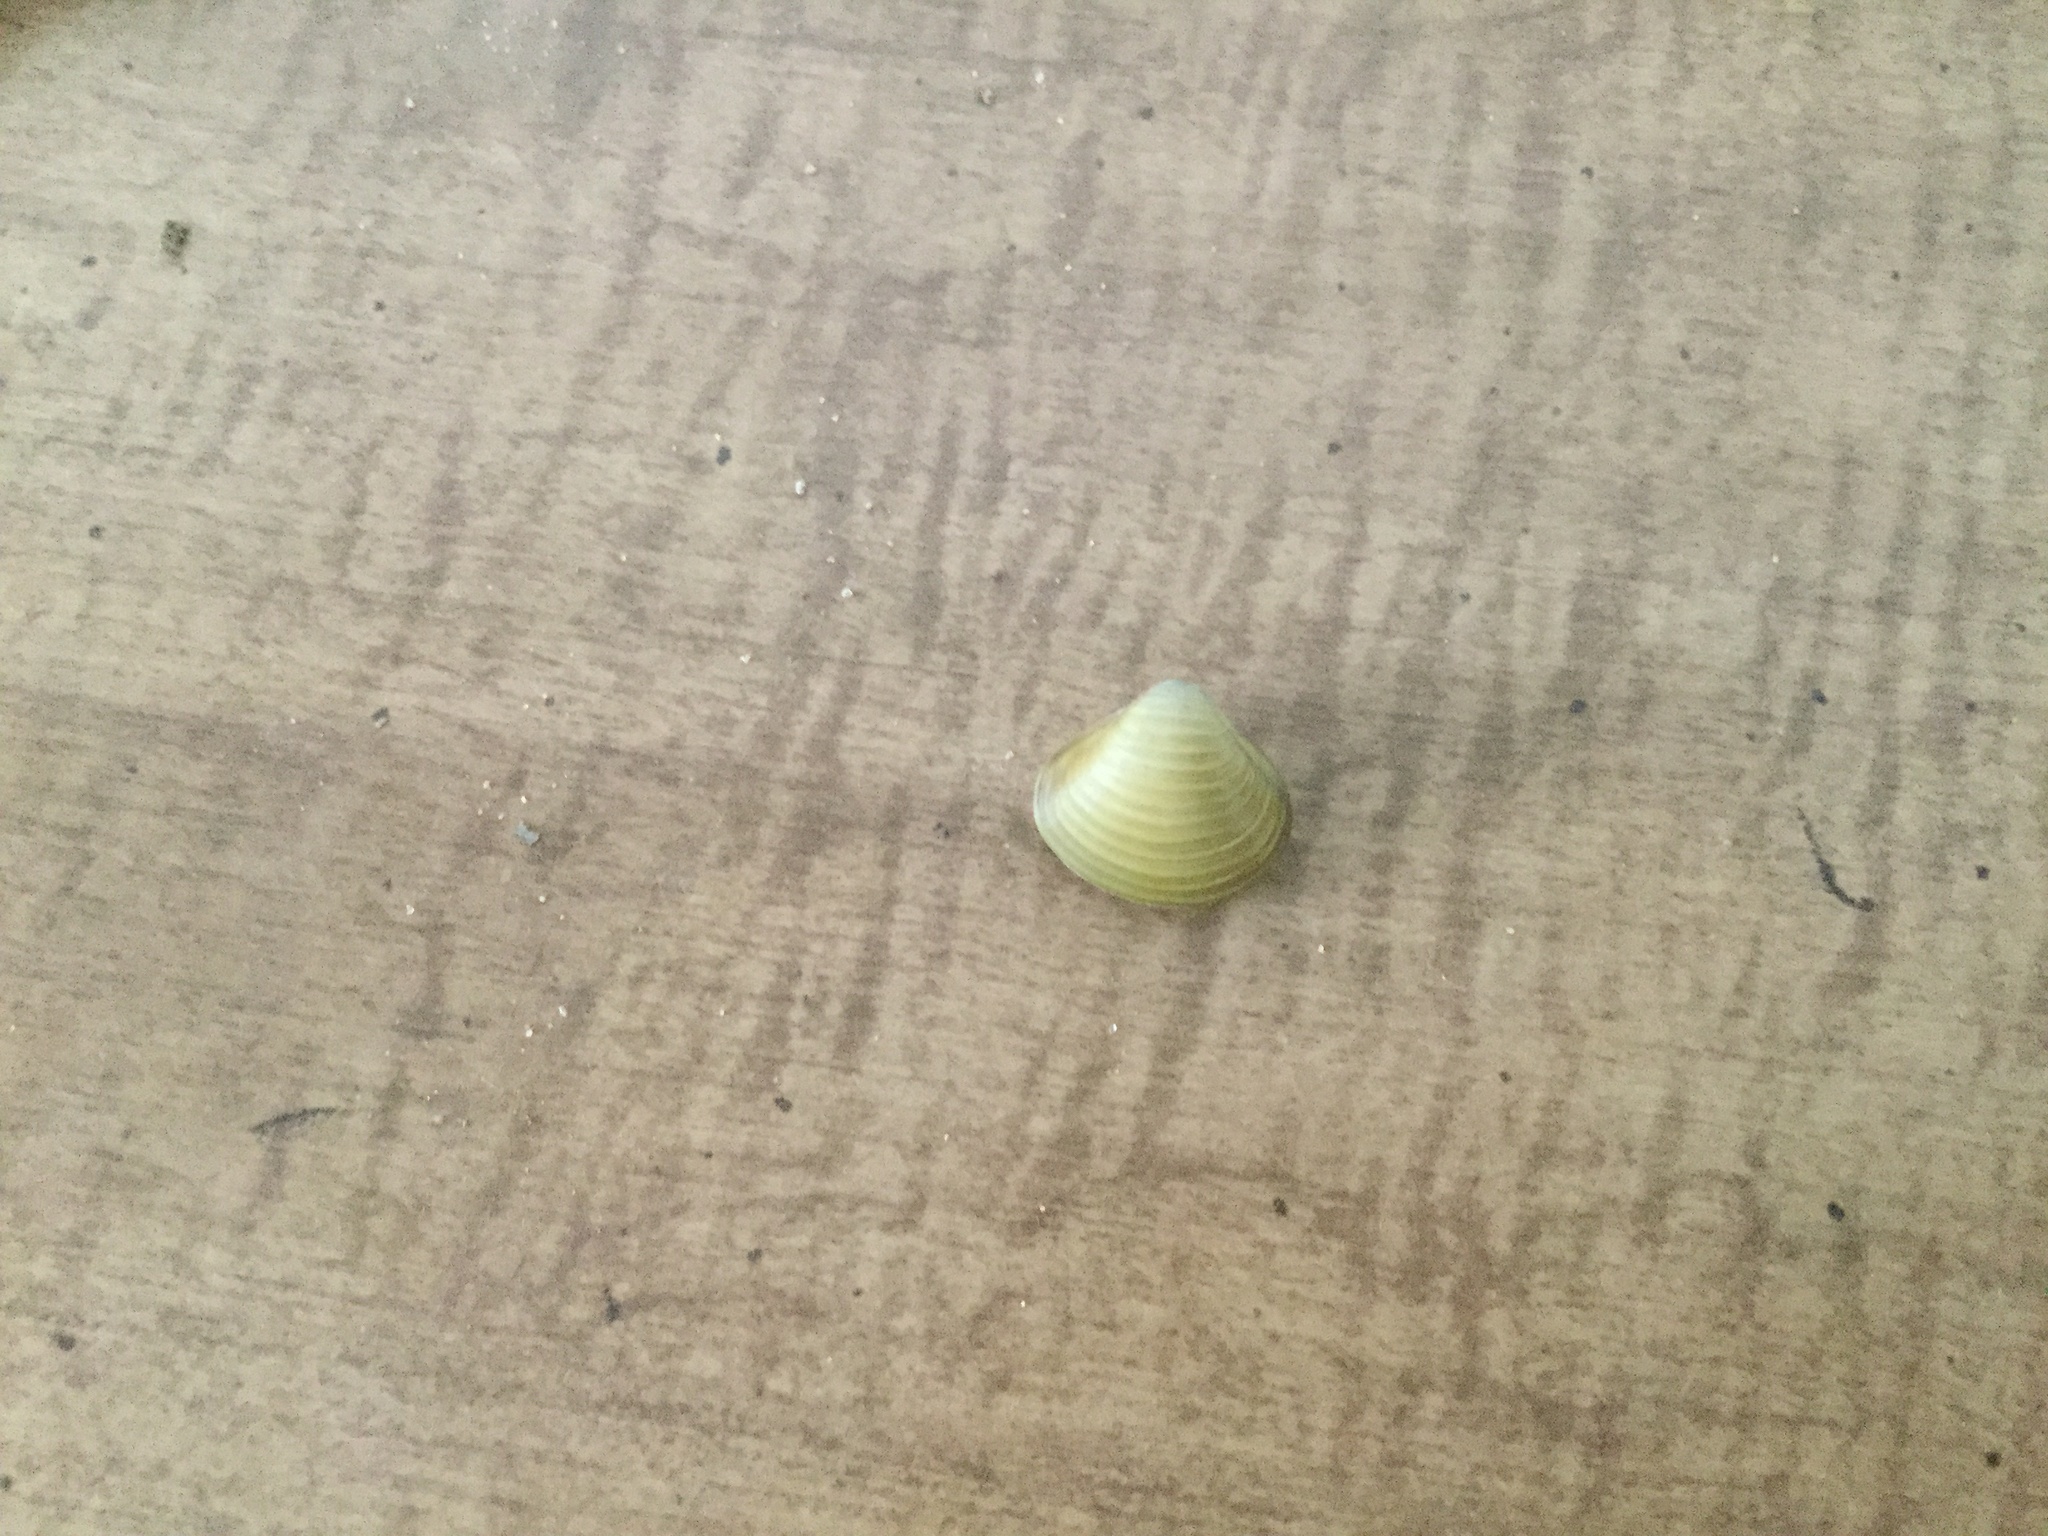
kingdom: Animalia
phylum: Mollusca
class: Bivalvia
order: Venerida
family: Cyrenidae
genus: Corbicula
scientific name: Corbicula fluminea
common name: Asian clam
